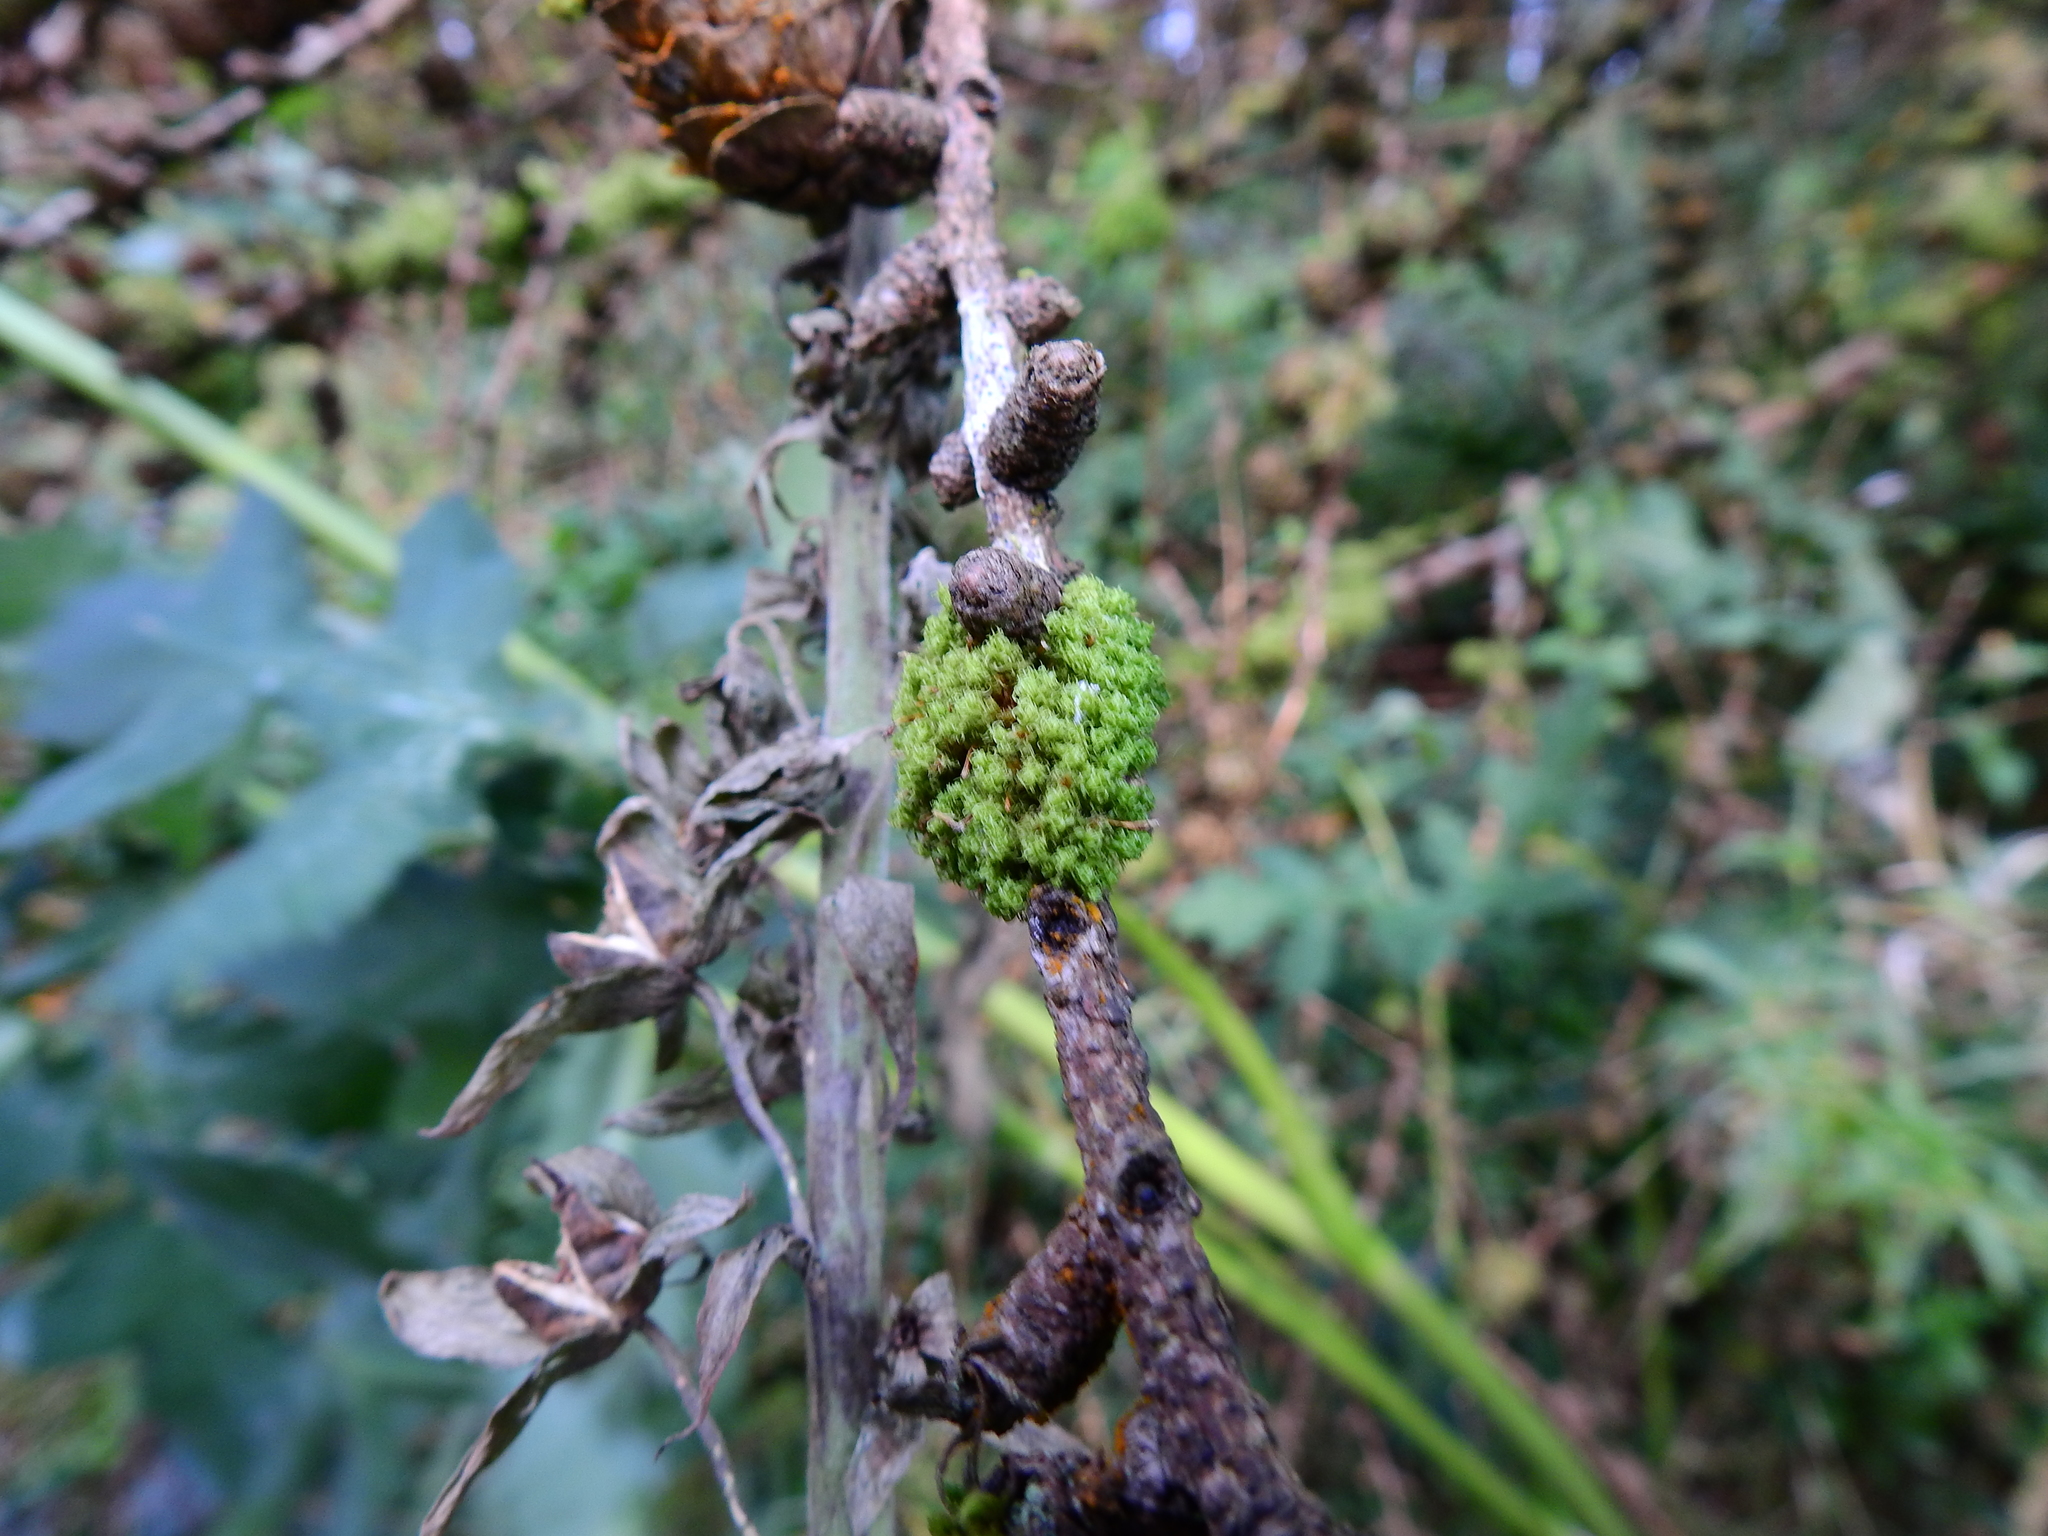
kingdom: Plantae
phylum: Bryophyta
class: Bryopsida
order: Orthotrichales
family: Orthotrichaceae
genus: Ulota
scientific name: Ulota crispa
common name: Crisped pincushion moss
